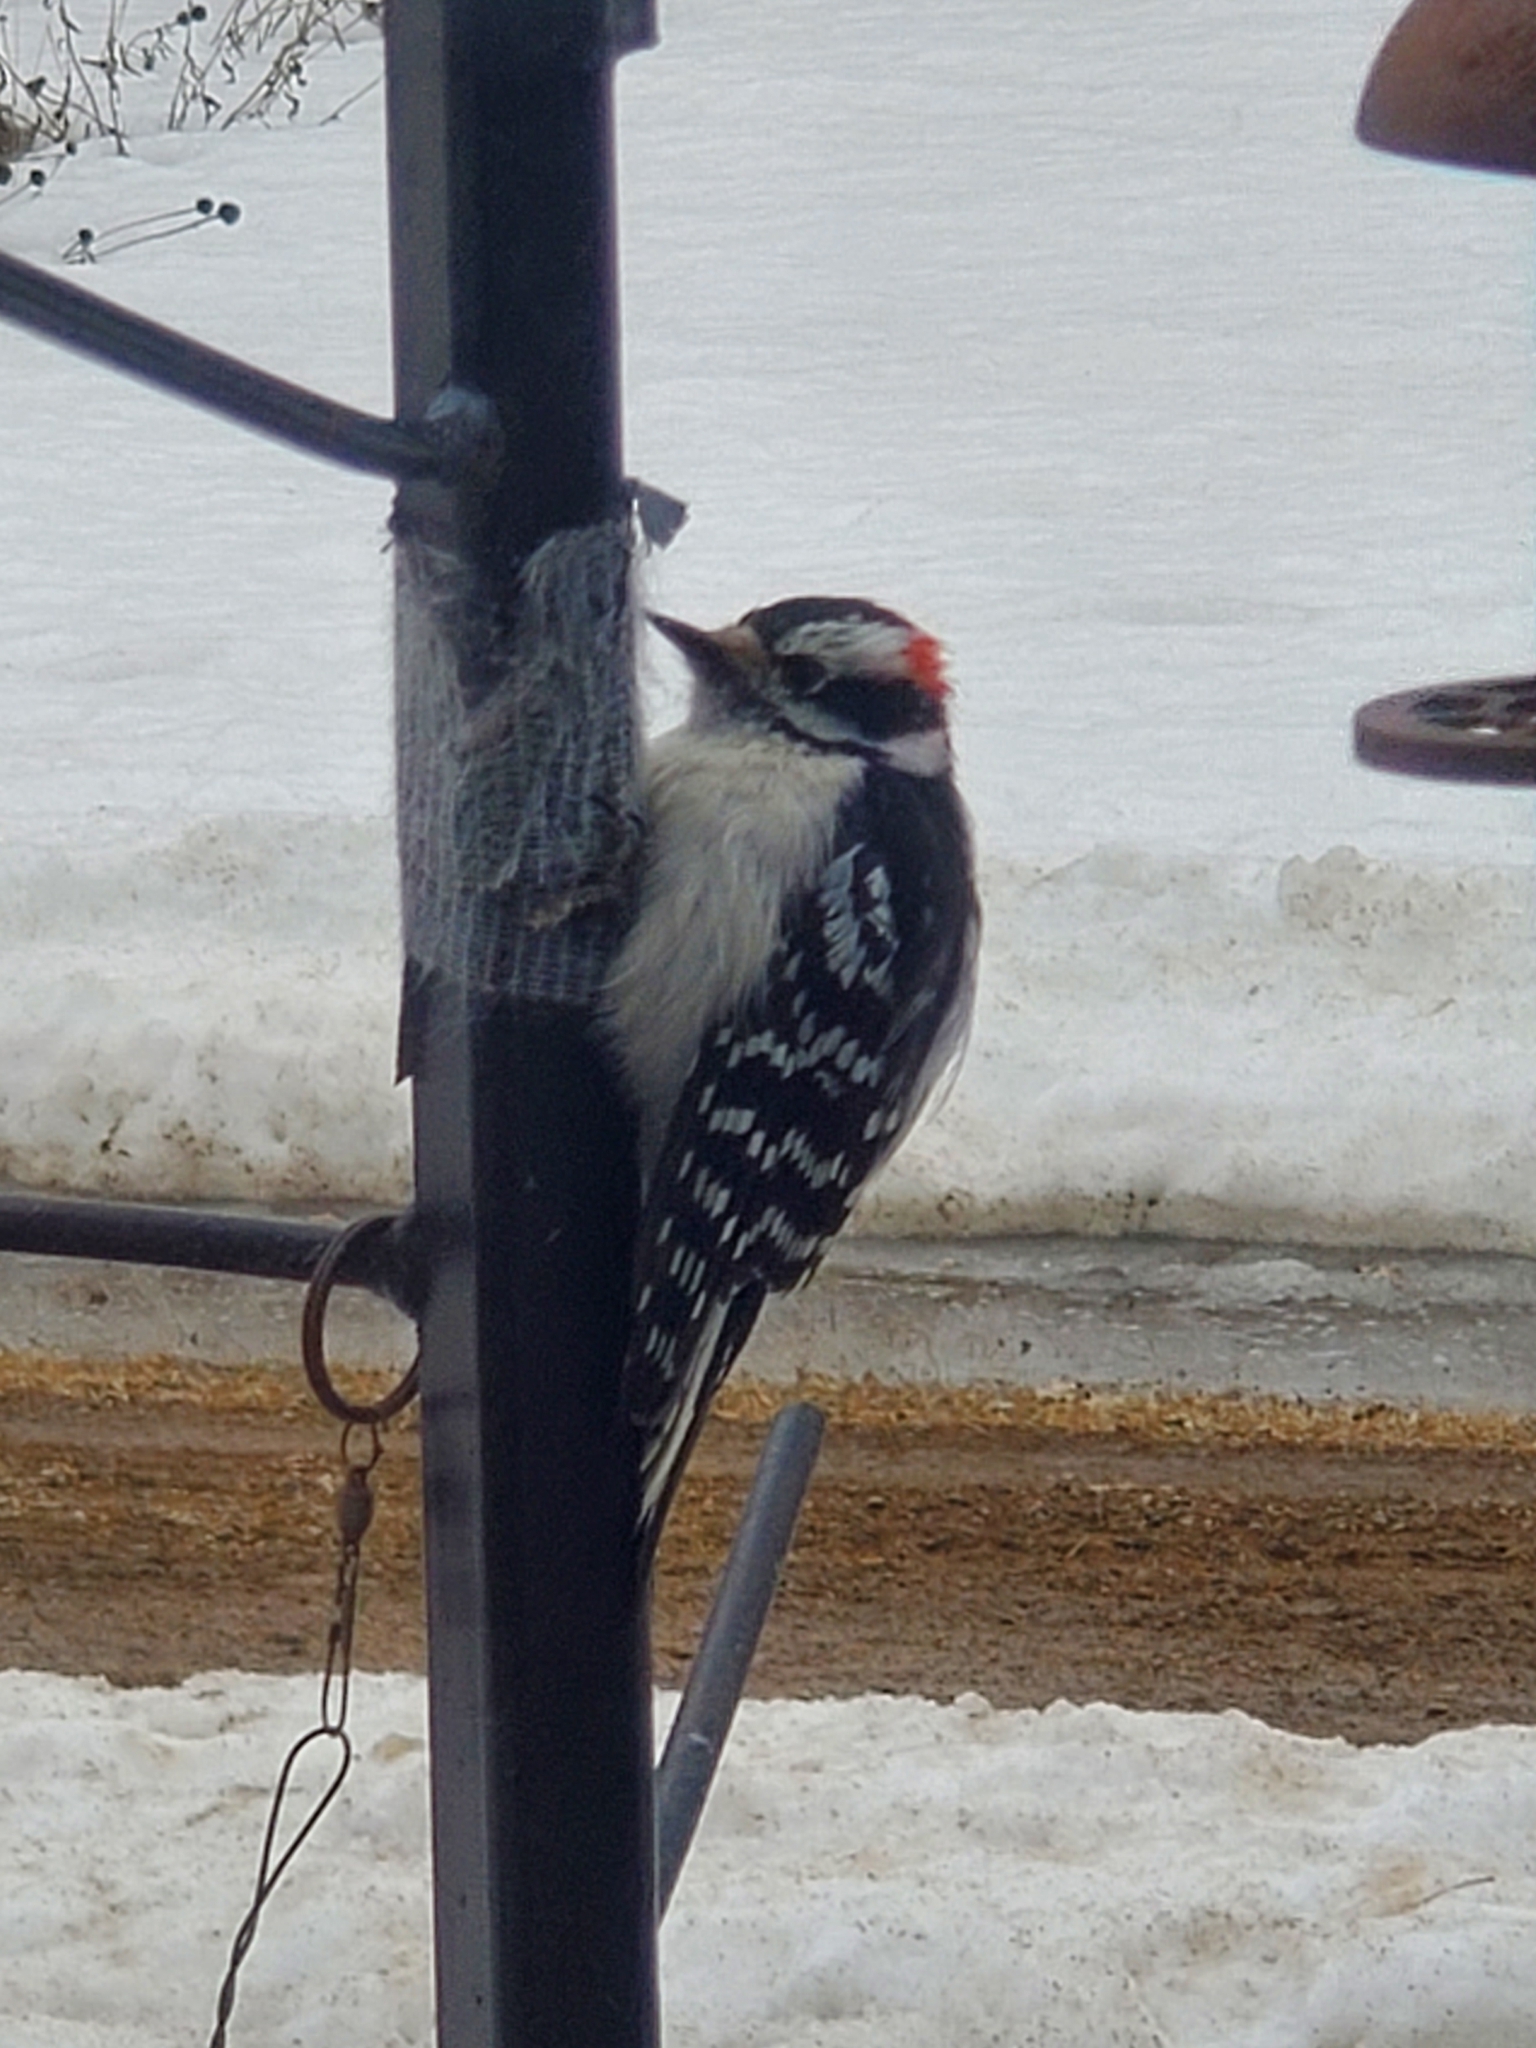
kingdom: Animalia
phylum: Chordata
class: Aves
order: Piciformes
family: Picidae
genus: Dryobates
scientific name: Dryobates pubescens
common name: Downy woodpecker
